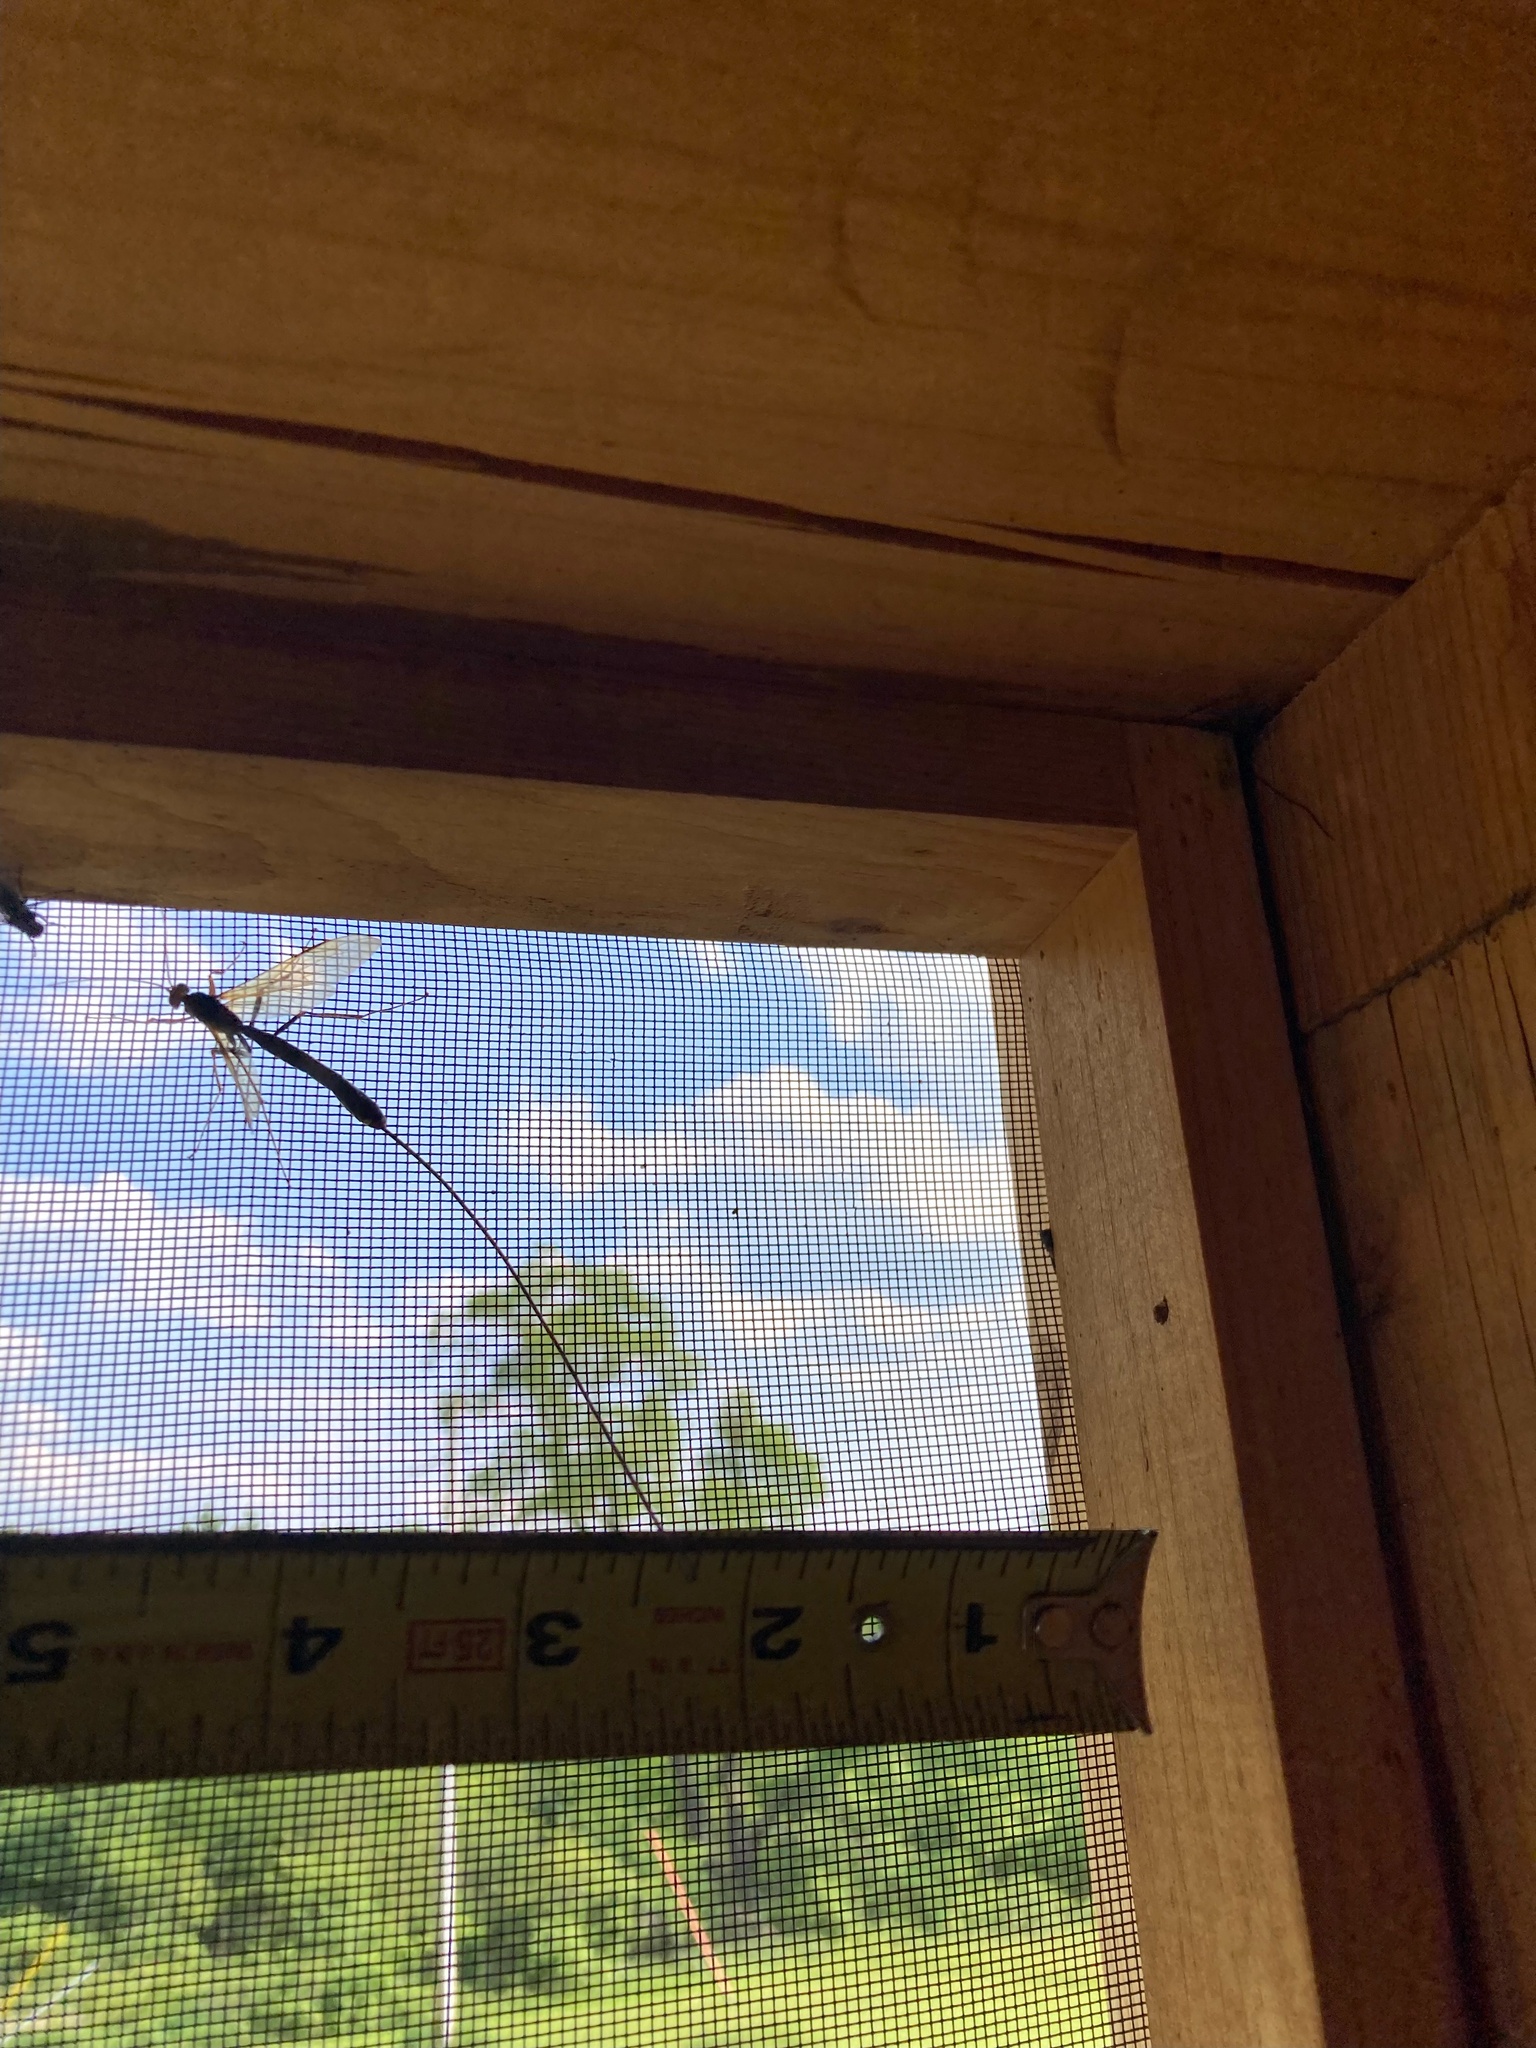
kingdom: Animalia
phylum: Arthropoda
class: Insecta
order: Hymenoptera
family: Ichneumonidae
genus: Megarhyssa
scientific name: Megarhyssa atrata
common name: Black giant ichneumonid wasp
